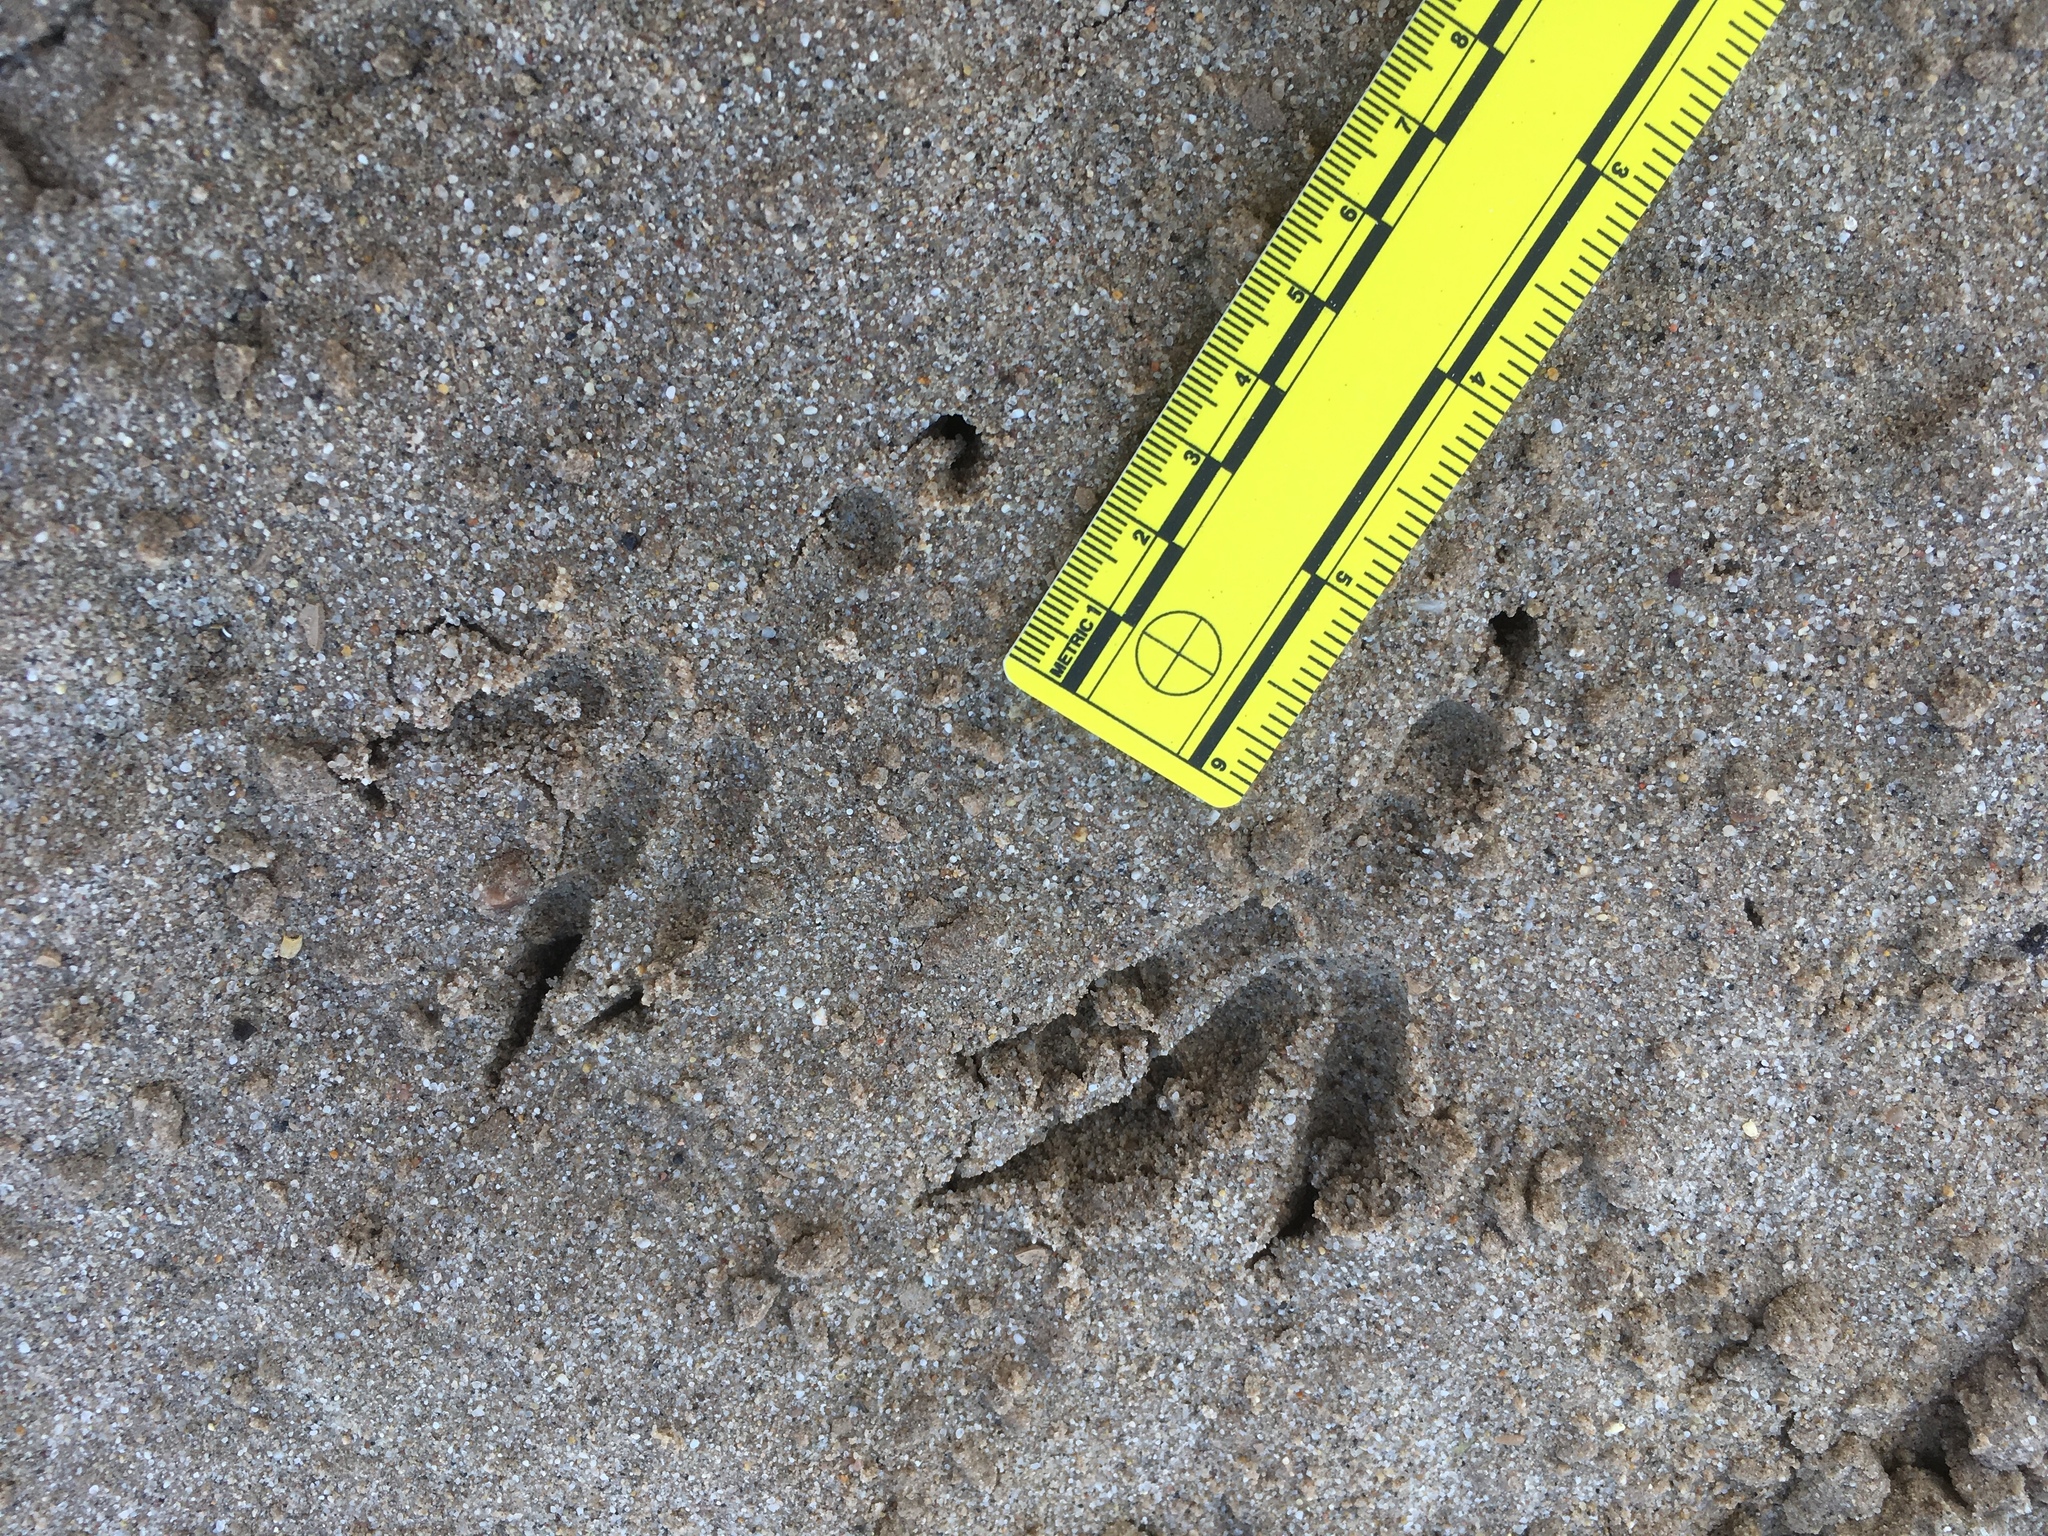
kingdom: Animalia
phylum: Chordata
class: Aves
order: Passeriformes
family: Corvidae
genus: Corvus
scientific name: Corvus corax
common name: Common raven
